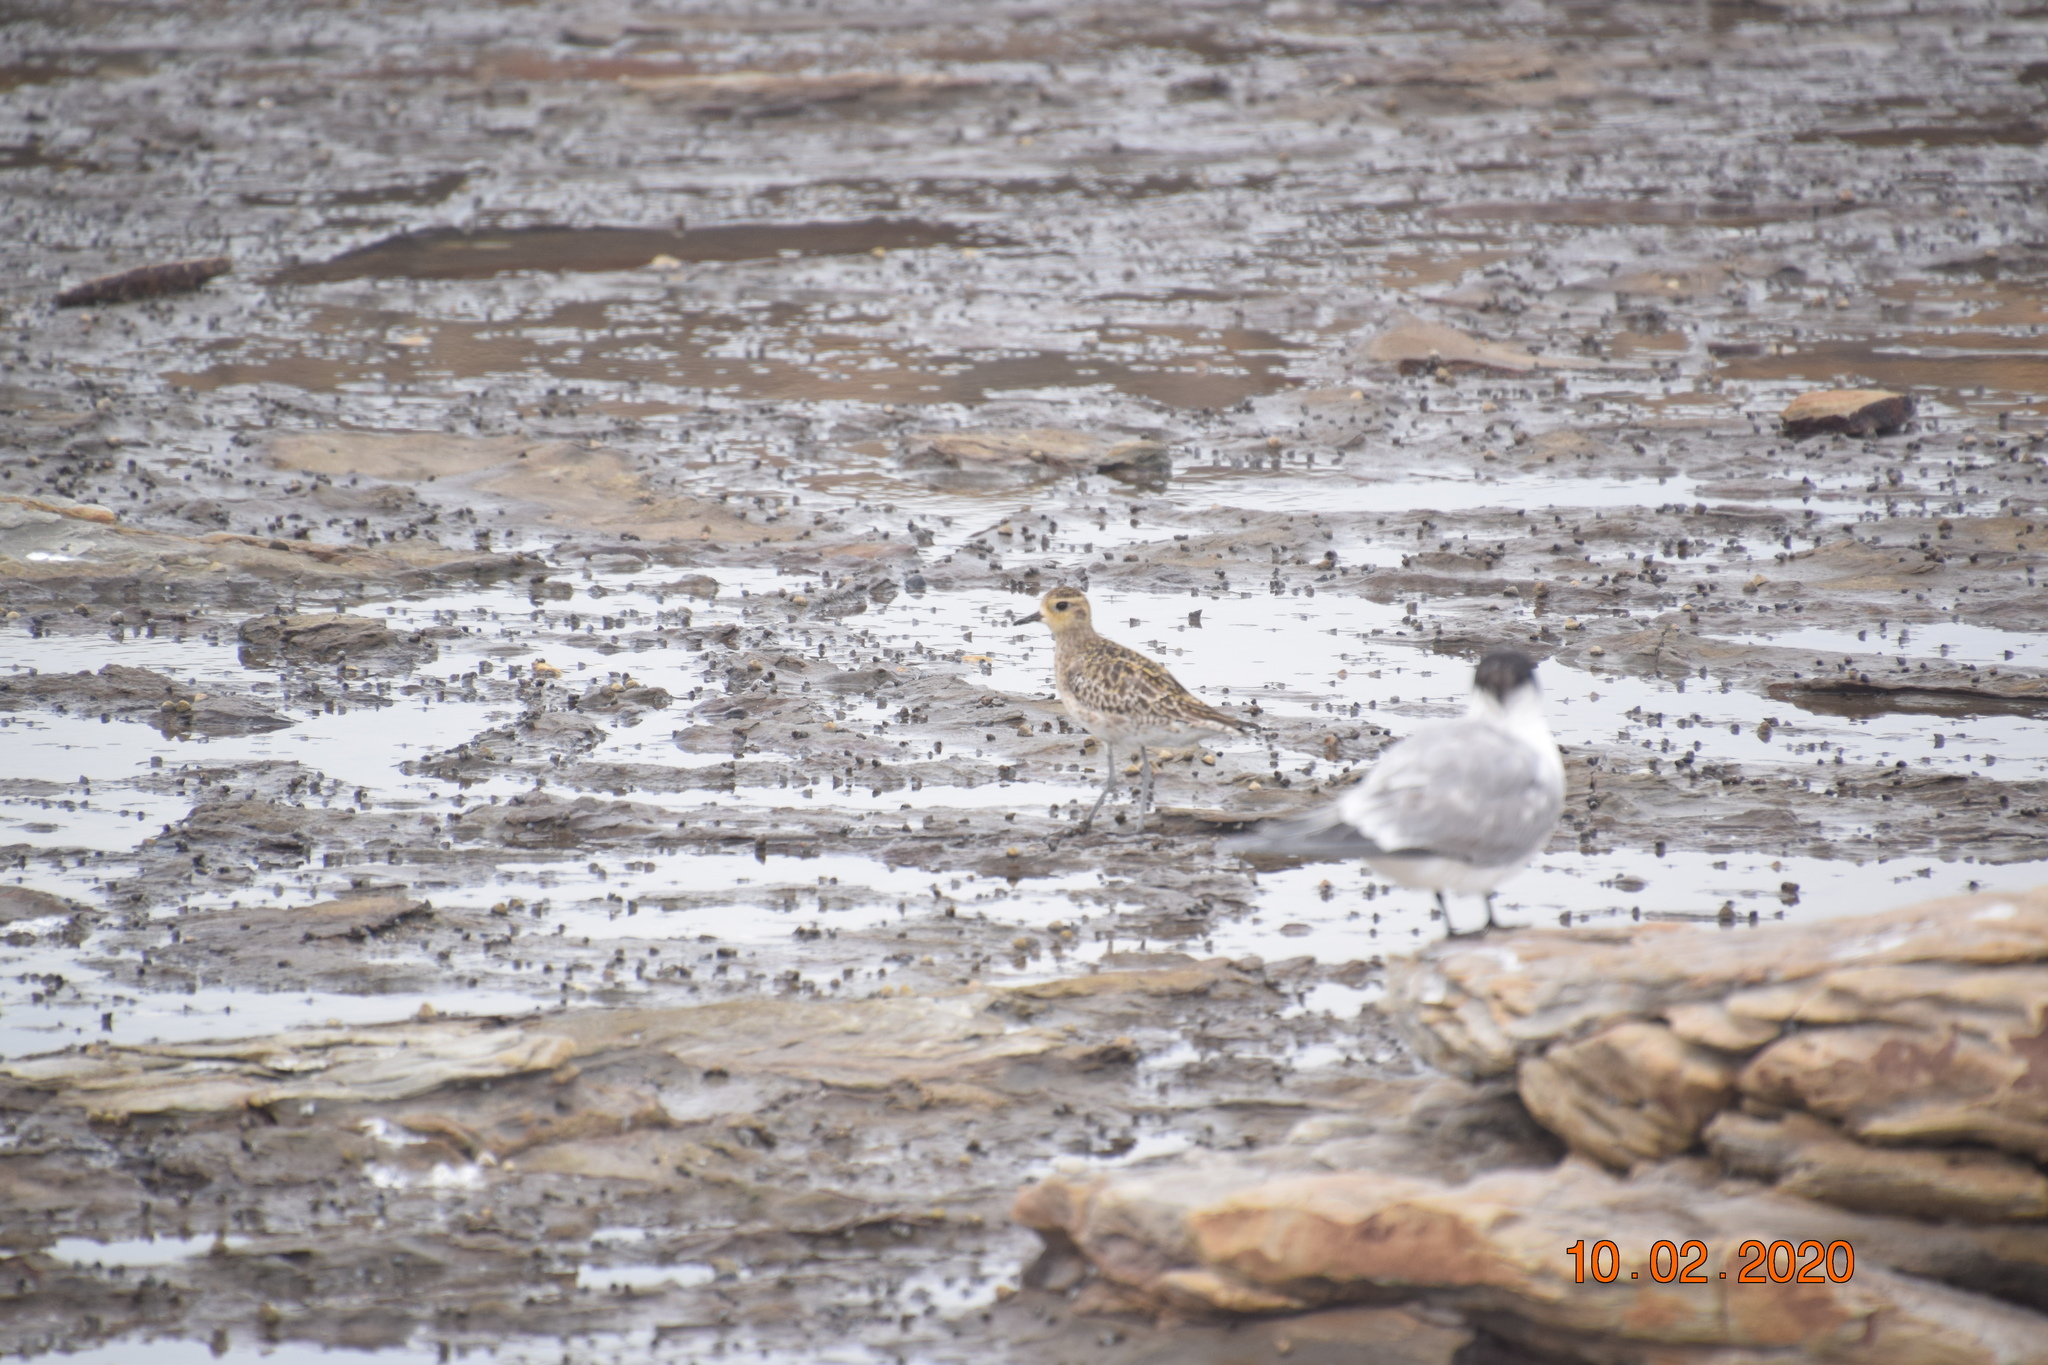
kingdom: Animalia
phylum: Chordata
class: Aves
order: Charadriiformes
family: Charadriidae
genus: Pluvialis
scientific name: Pluvialis fulva
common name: Pacific golden plover
